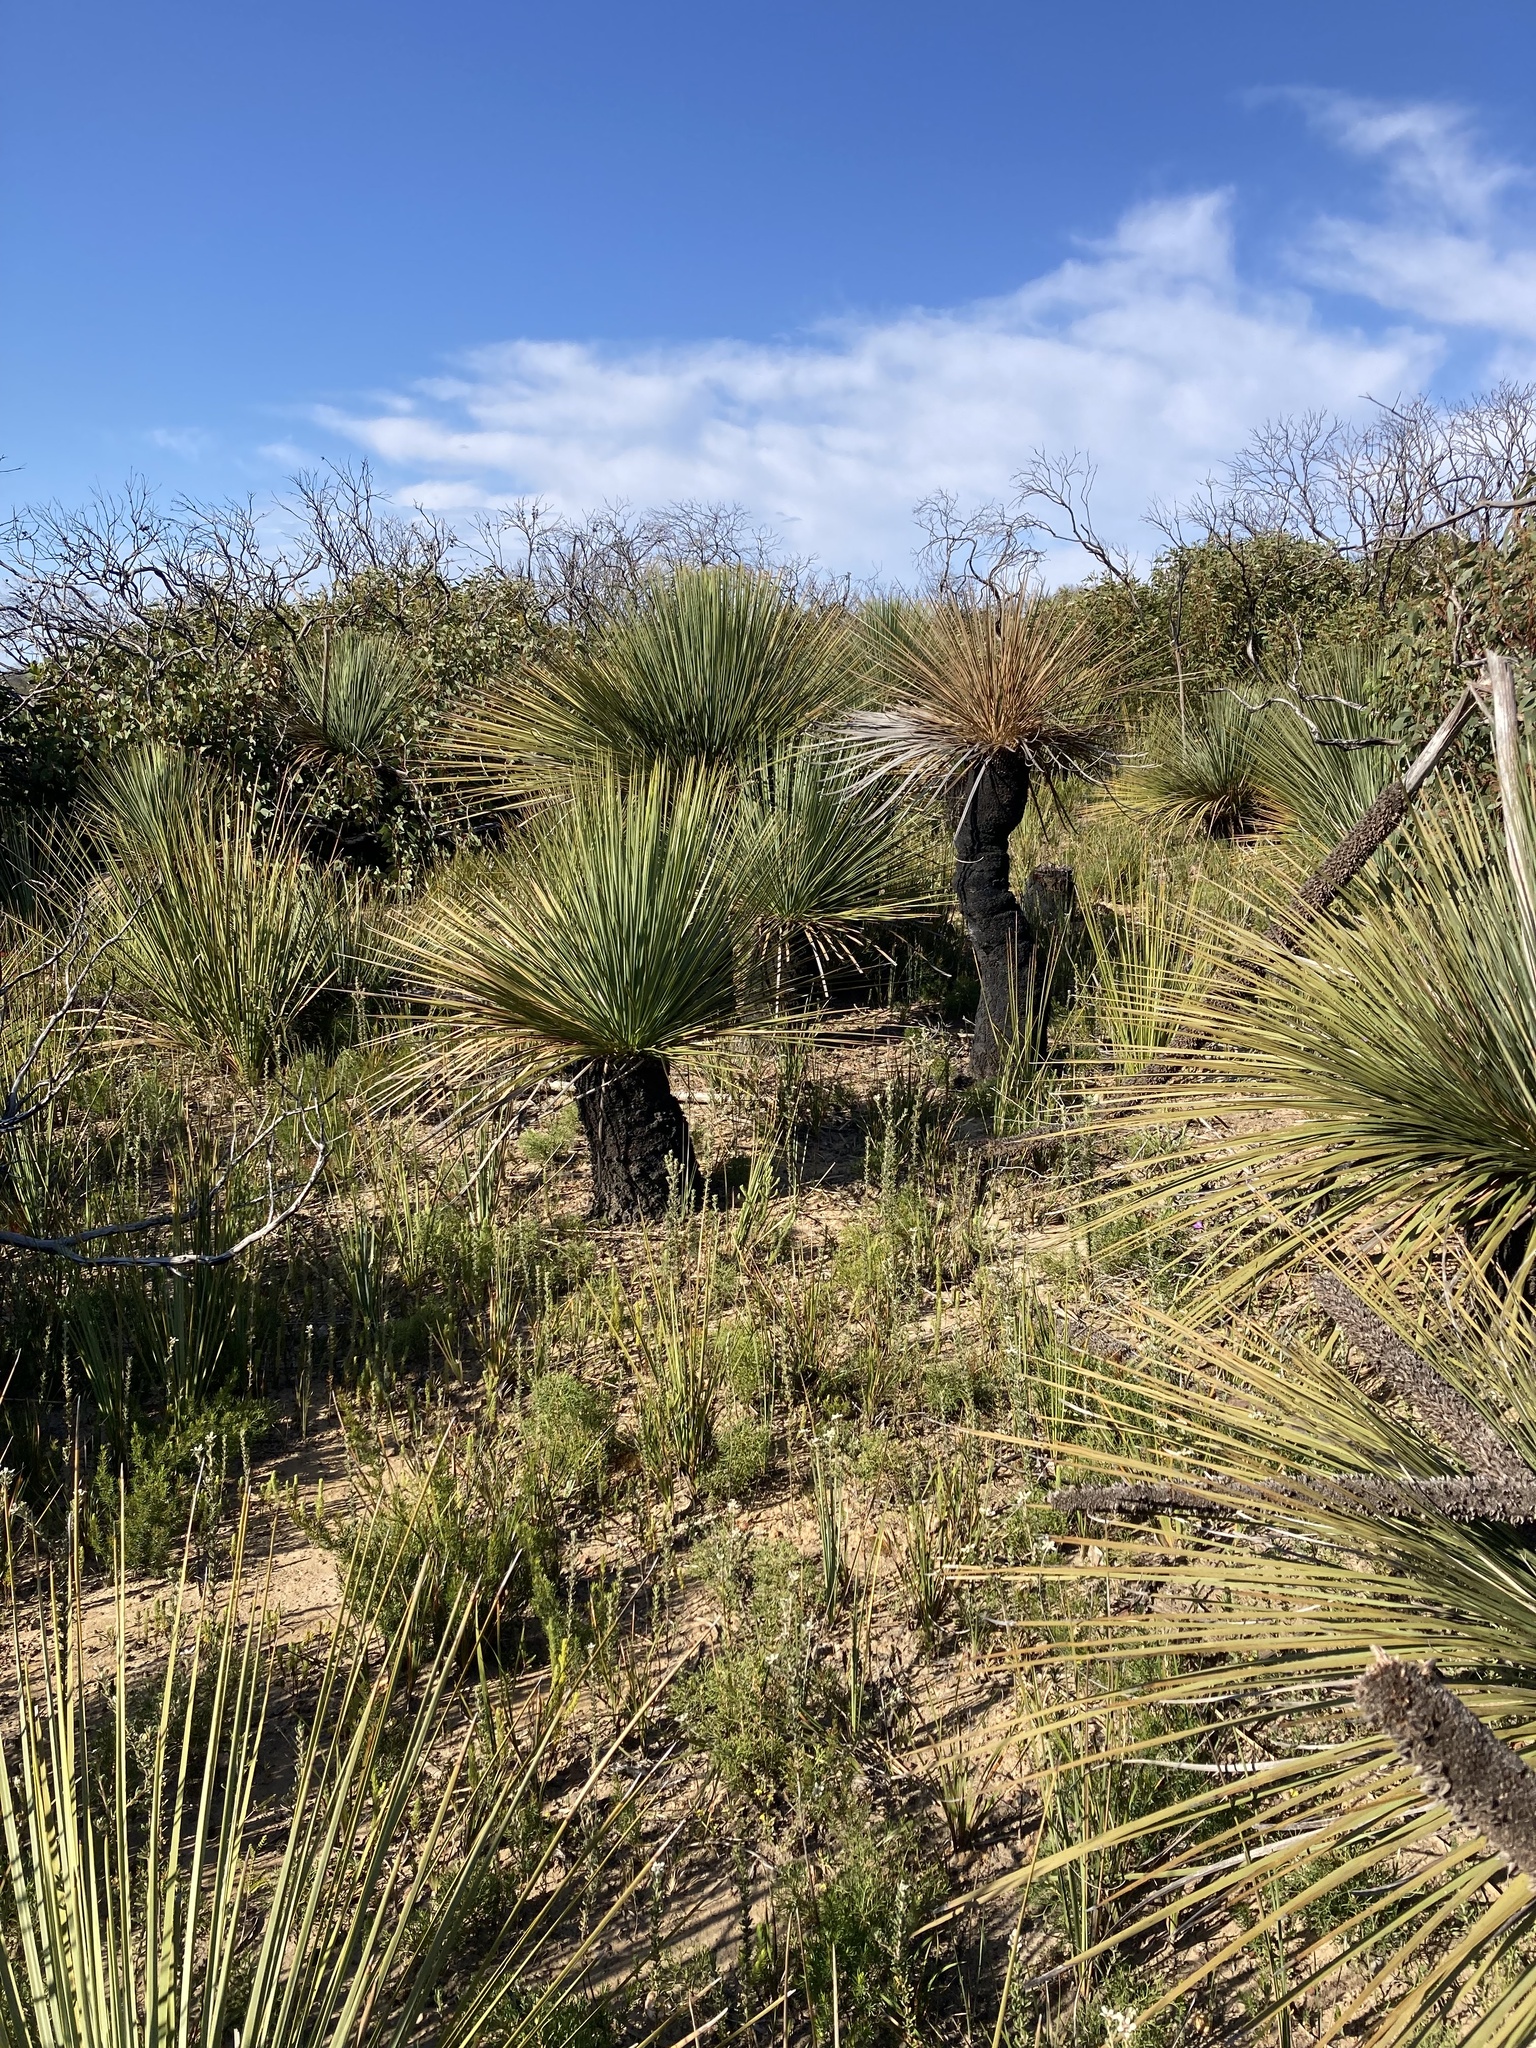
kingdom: Plantae
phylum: Tracheophyta
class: Liliopsida
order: Asparagales
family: Asphodelaceae
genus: Xanthorrhoea
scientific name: Xanthorrhoea semiplana
